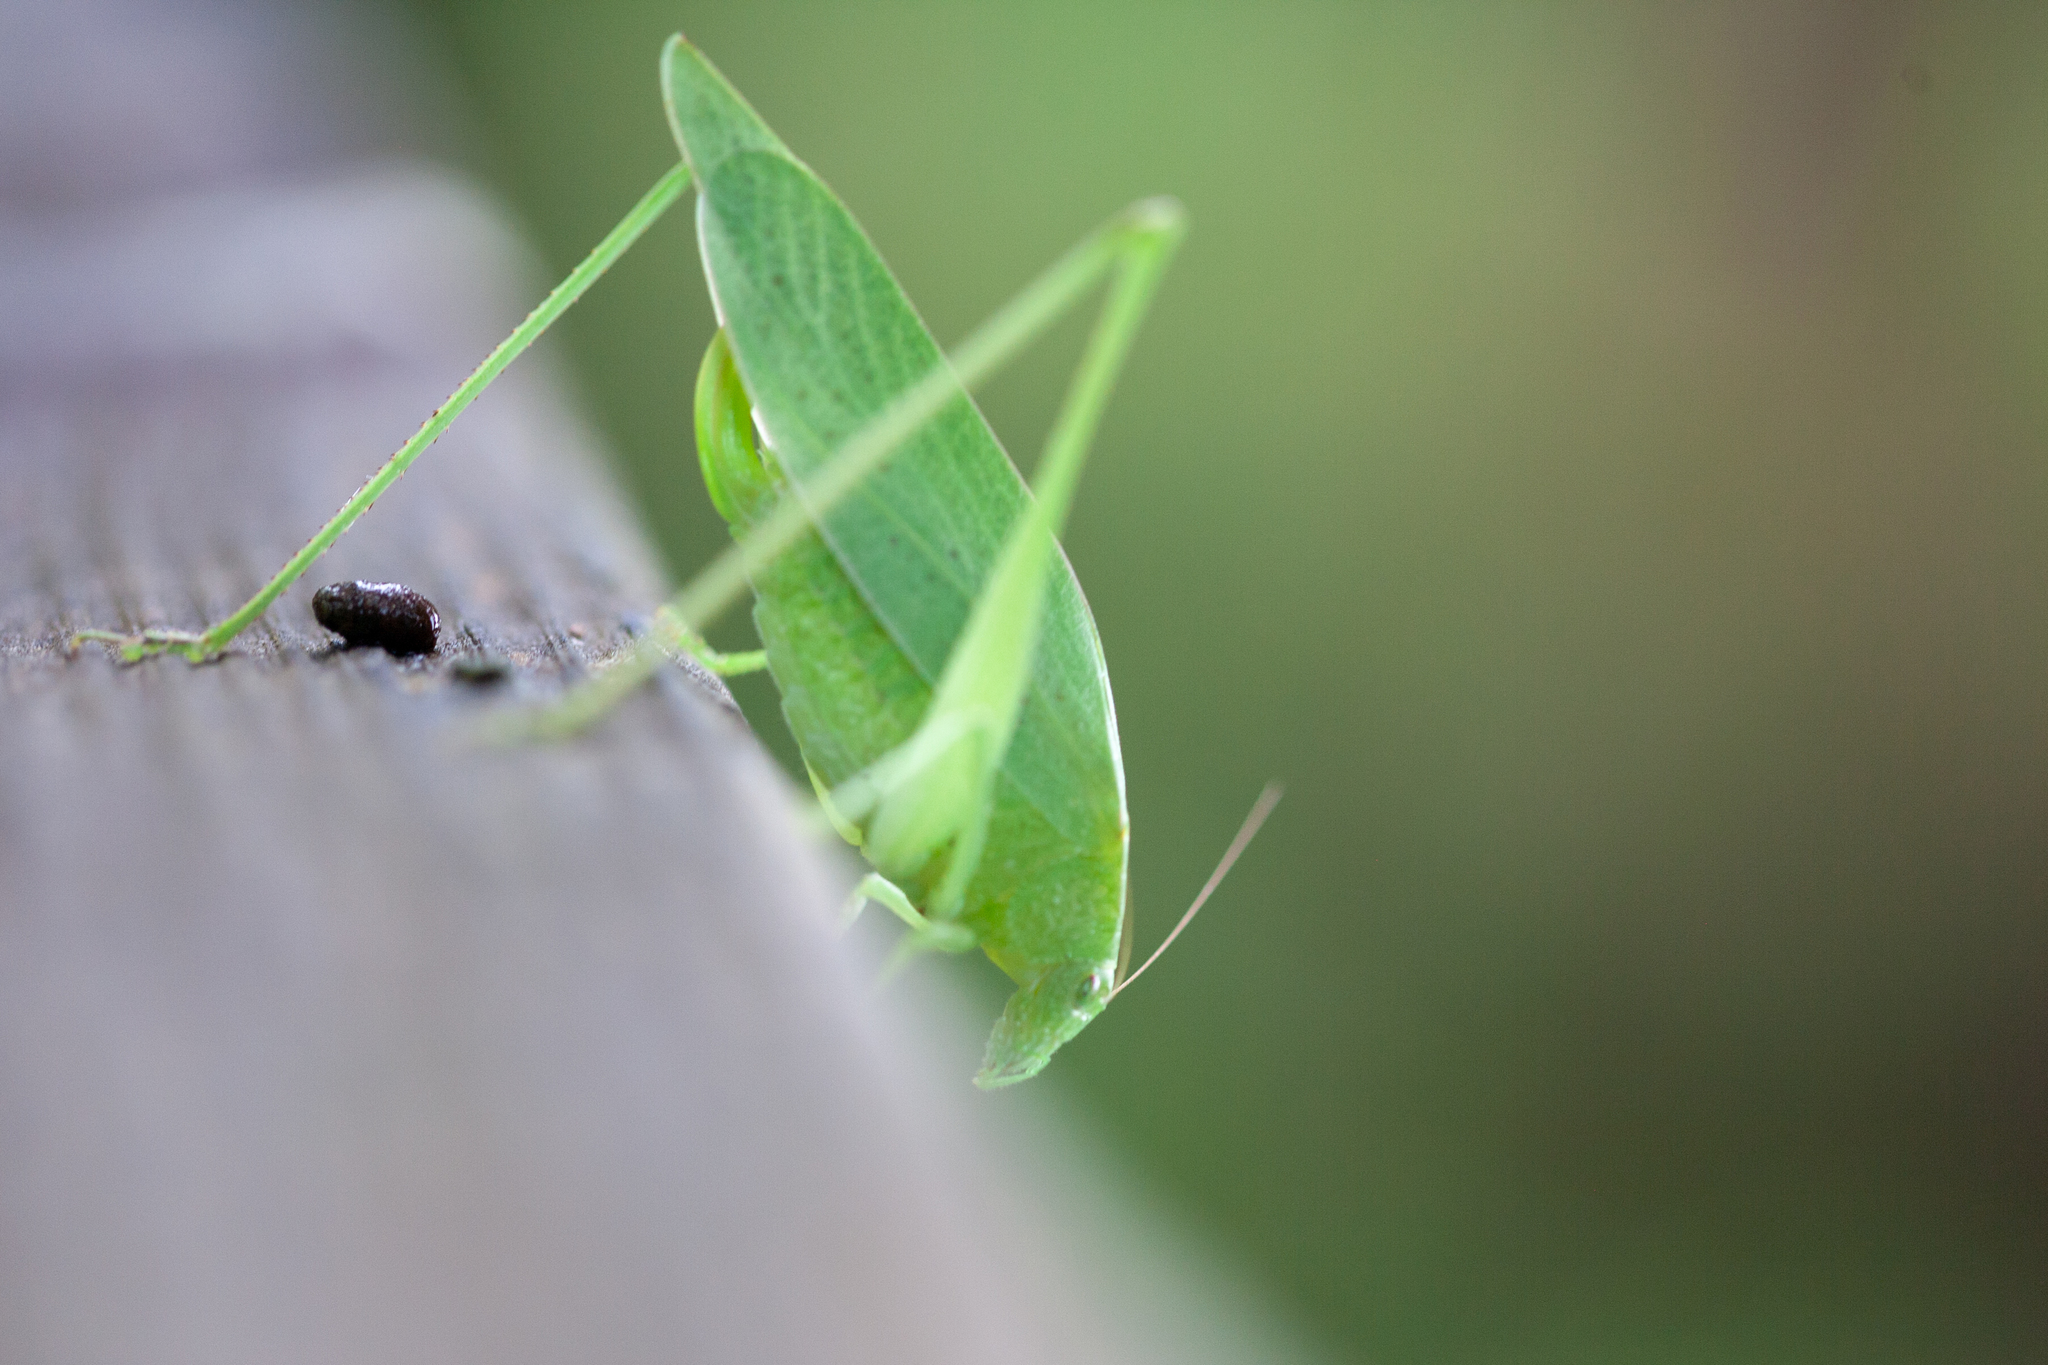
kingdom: Animalia
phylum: Arthropoda
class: Insecta
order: Orthoptera
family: Tettigoniidae
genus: Amblycorypha
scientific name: Amblycorypha floridana
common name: Florida false katydid
